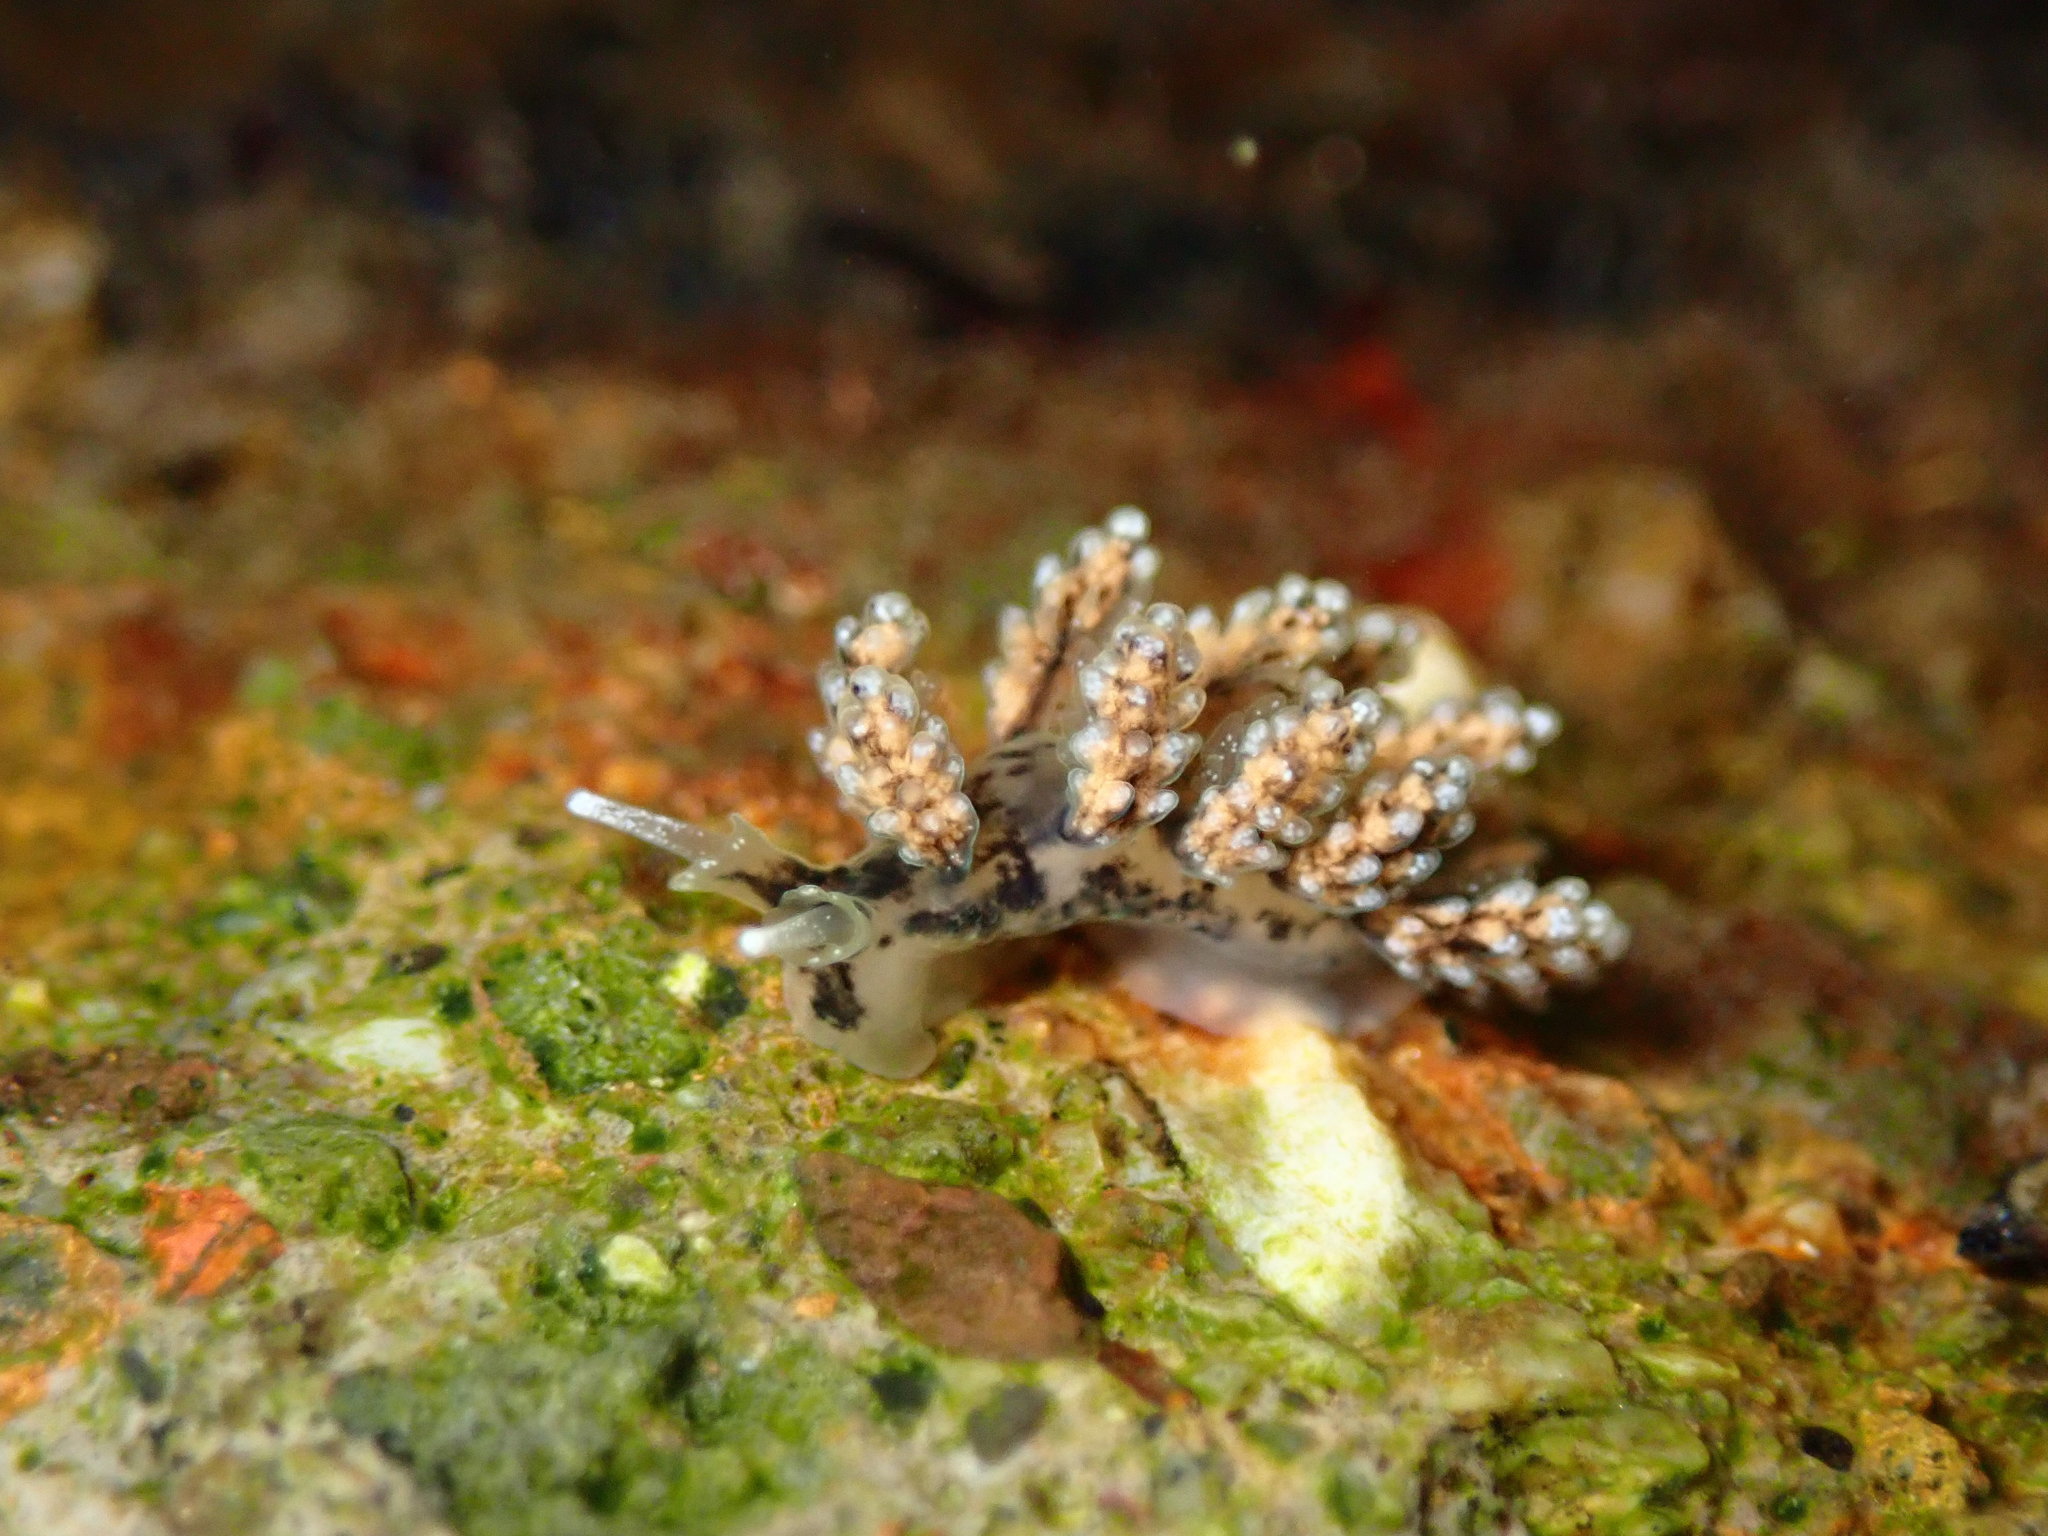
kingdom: Animalia
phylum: Mollusca
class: Gastropoda
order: Nudibranchia
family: Dotidae
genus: Doto
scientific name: Doto kya
